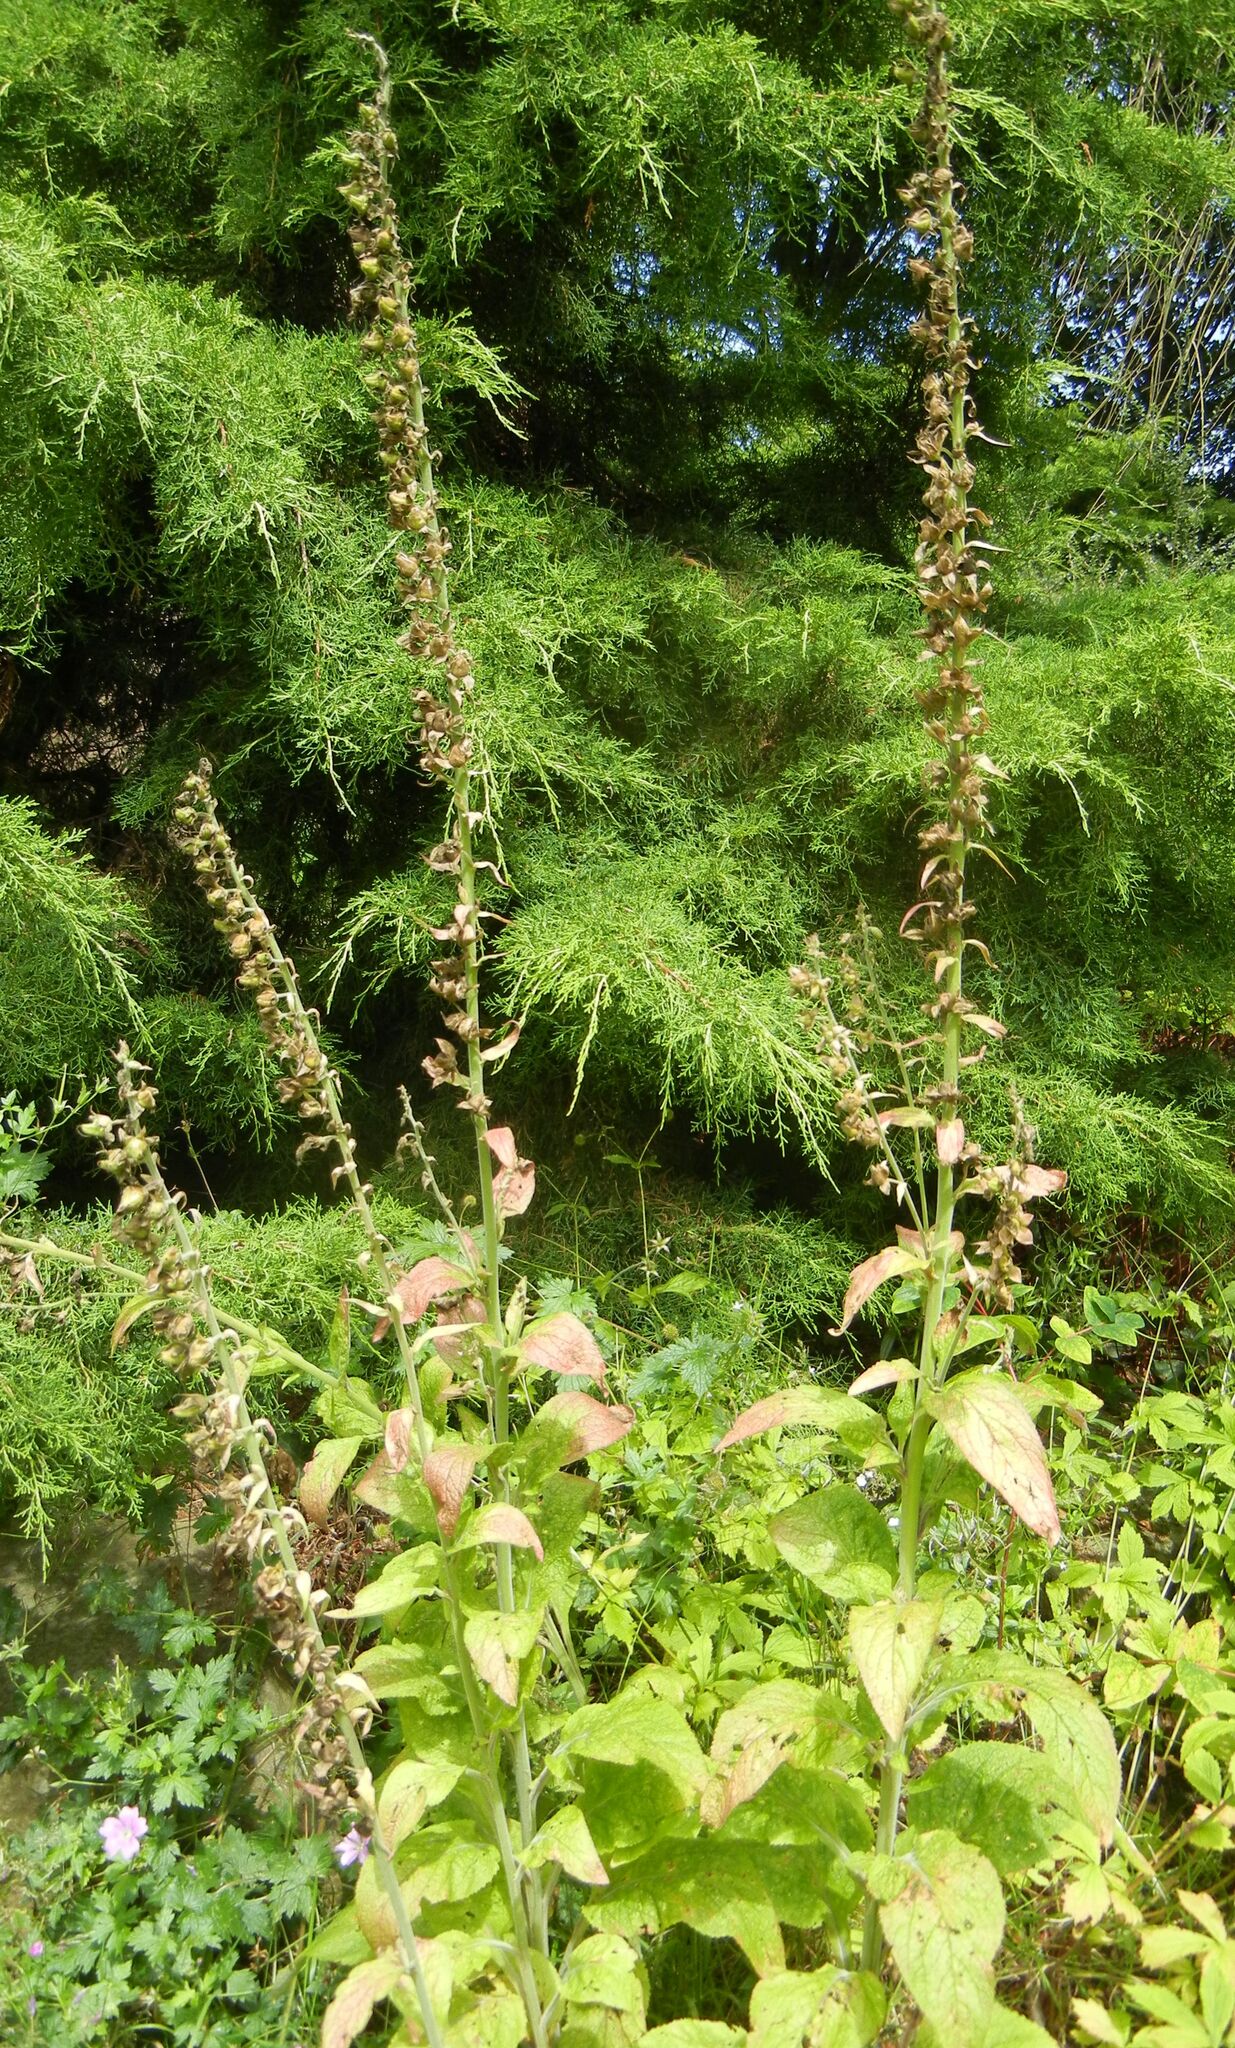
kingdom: Plantae
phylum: Tracheophyta
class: Magnoliopsida
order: Lamiales
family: Plantaginaceae
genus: Digitalis
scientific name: Digitalis purpurea
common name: Foxglove
